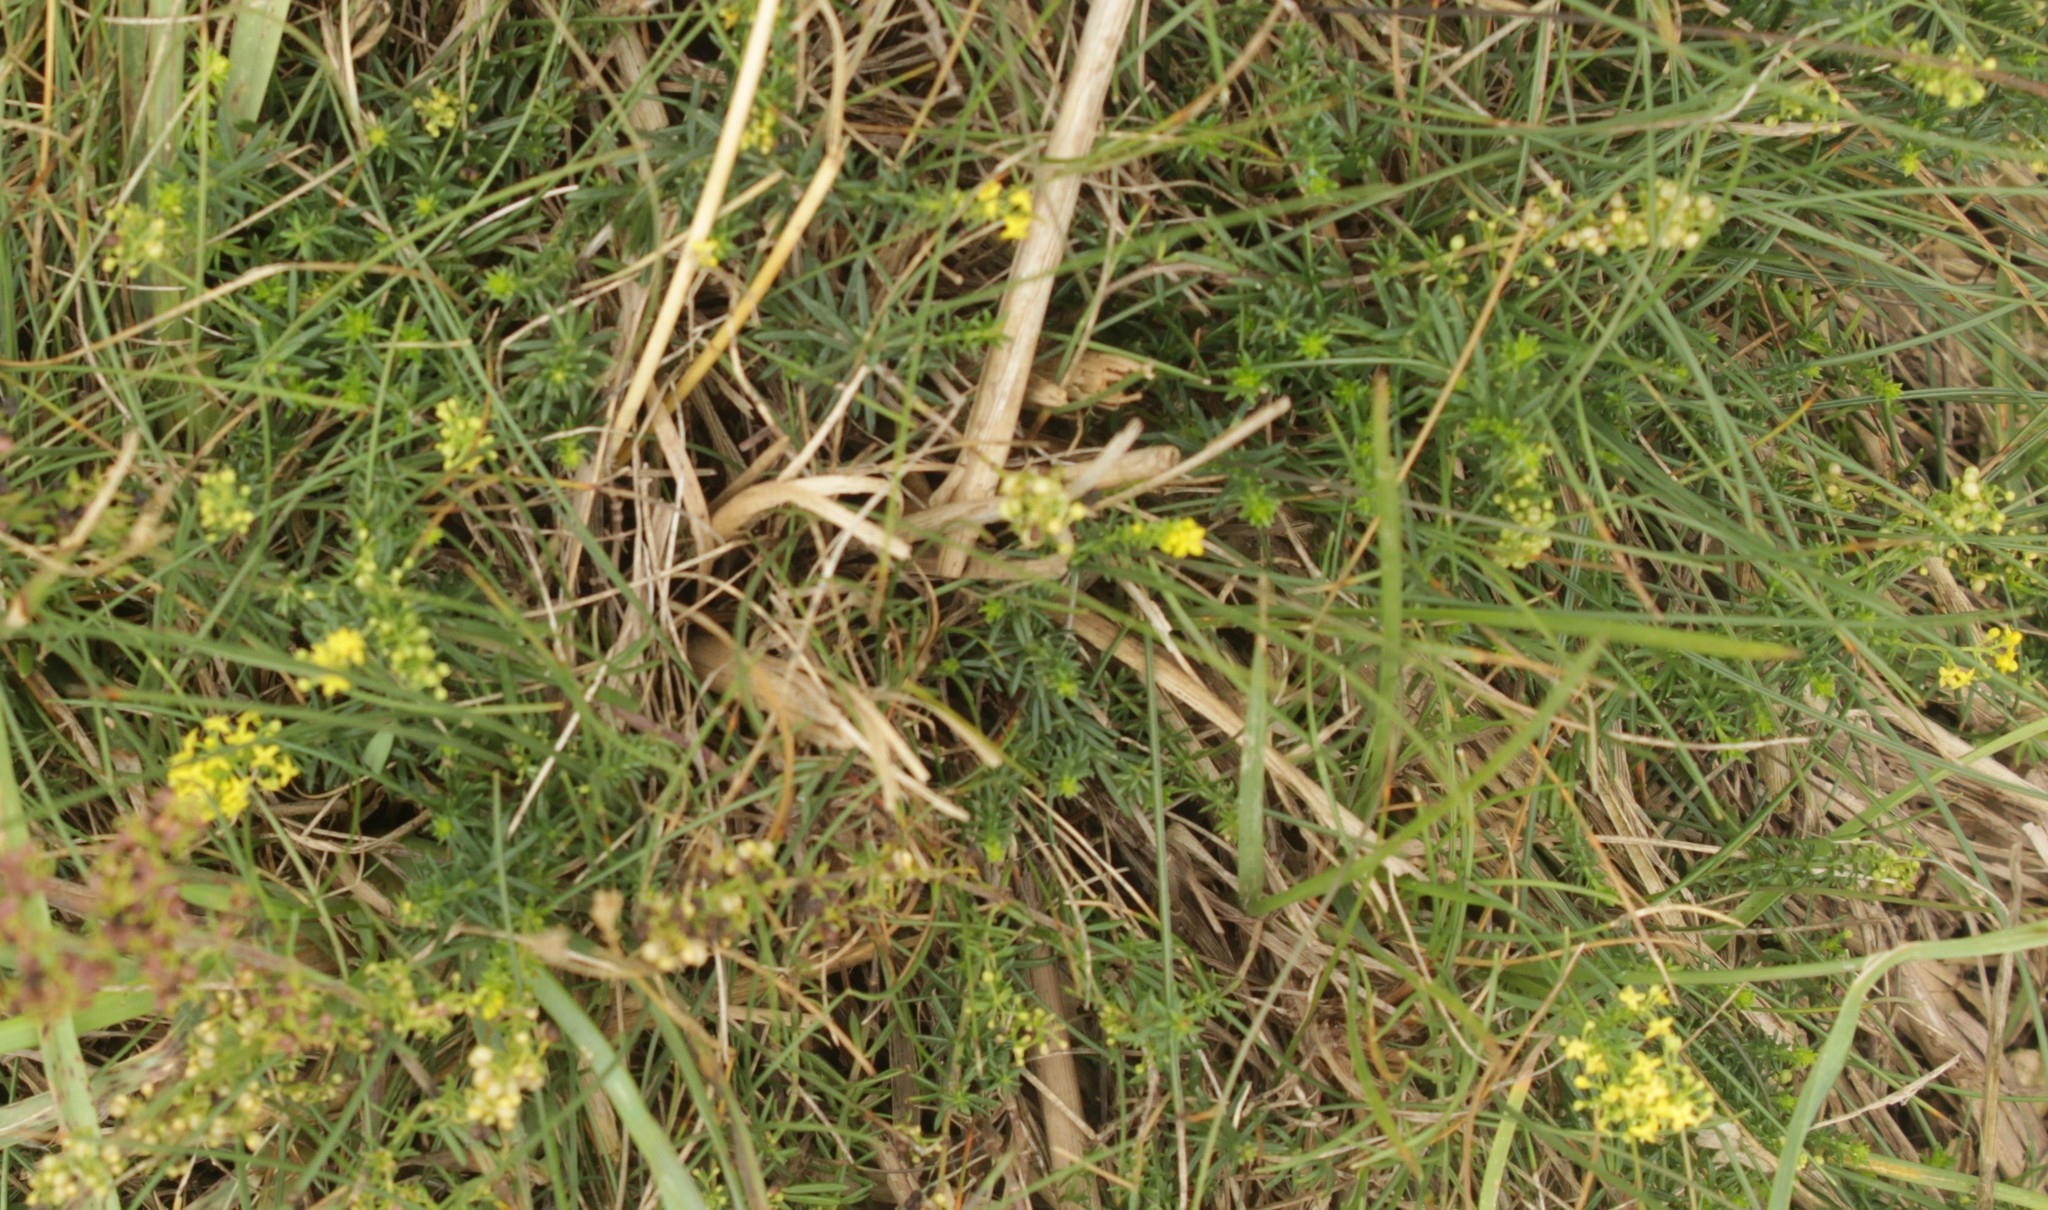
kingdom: Plantae
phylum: Tracheophyta
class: Magnoliopsida
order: Gentianales
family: Rubiaceae
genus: Galium
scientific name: Galium verum
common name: Lady's bedstraw
